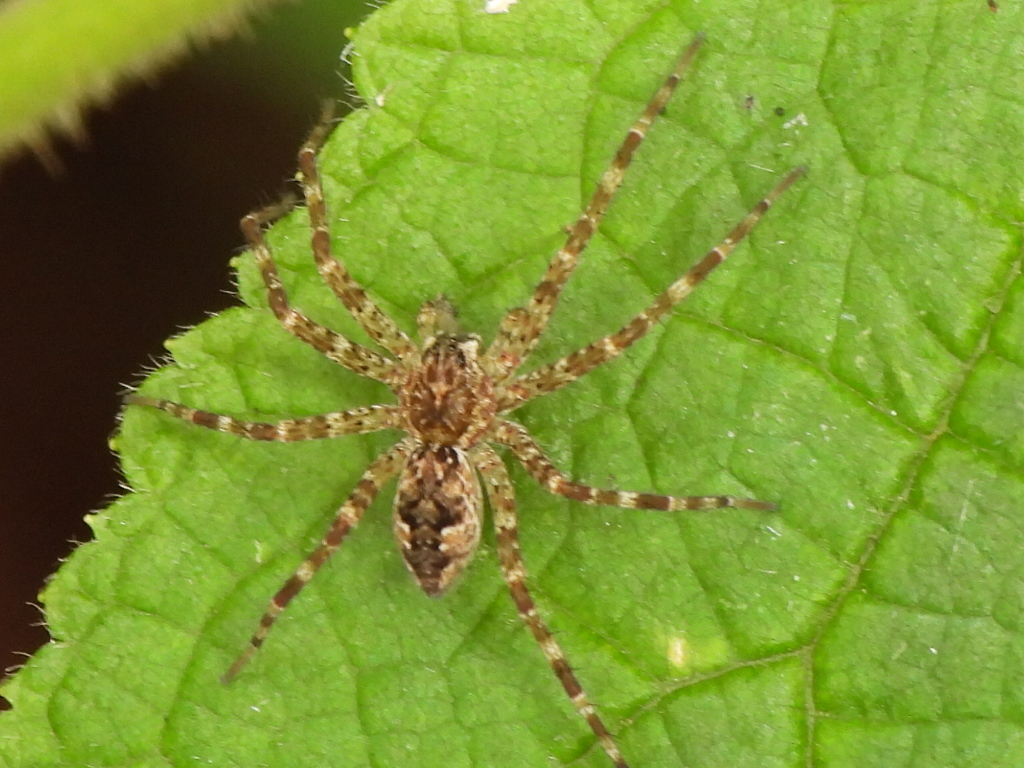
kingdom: Animalia
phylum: Arthropoda
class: Arachnida
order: Araneae
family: Pisauridae
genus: Dolomedes
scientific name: Dolomedes tenebrosus
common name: Dark fishing spider
